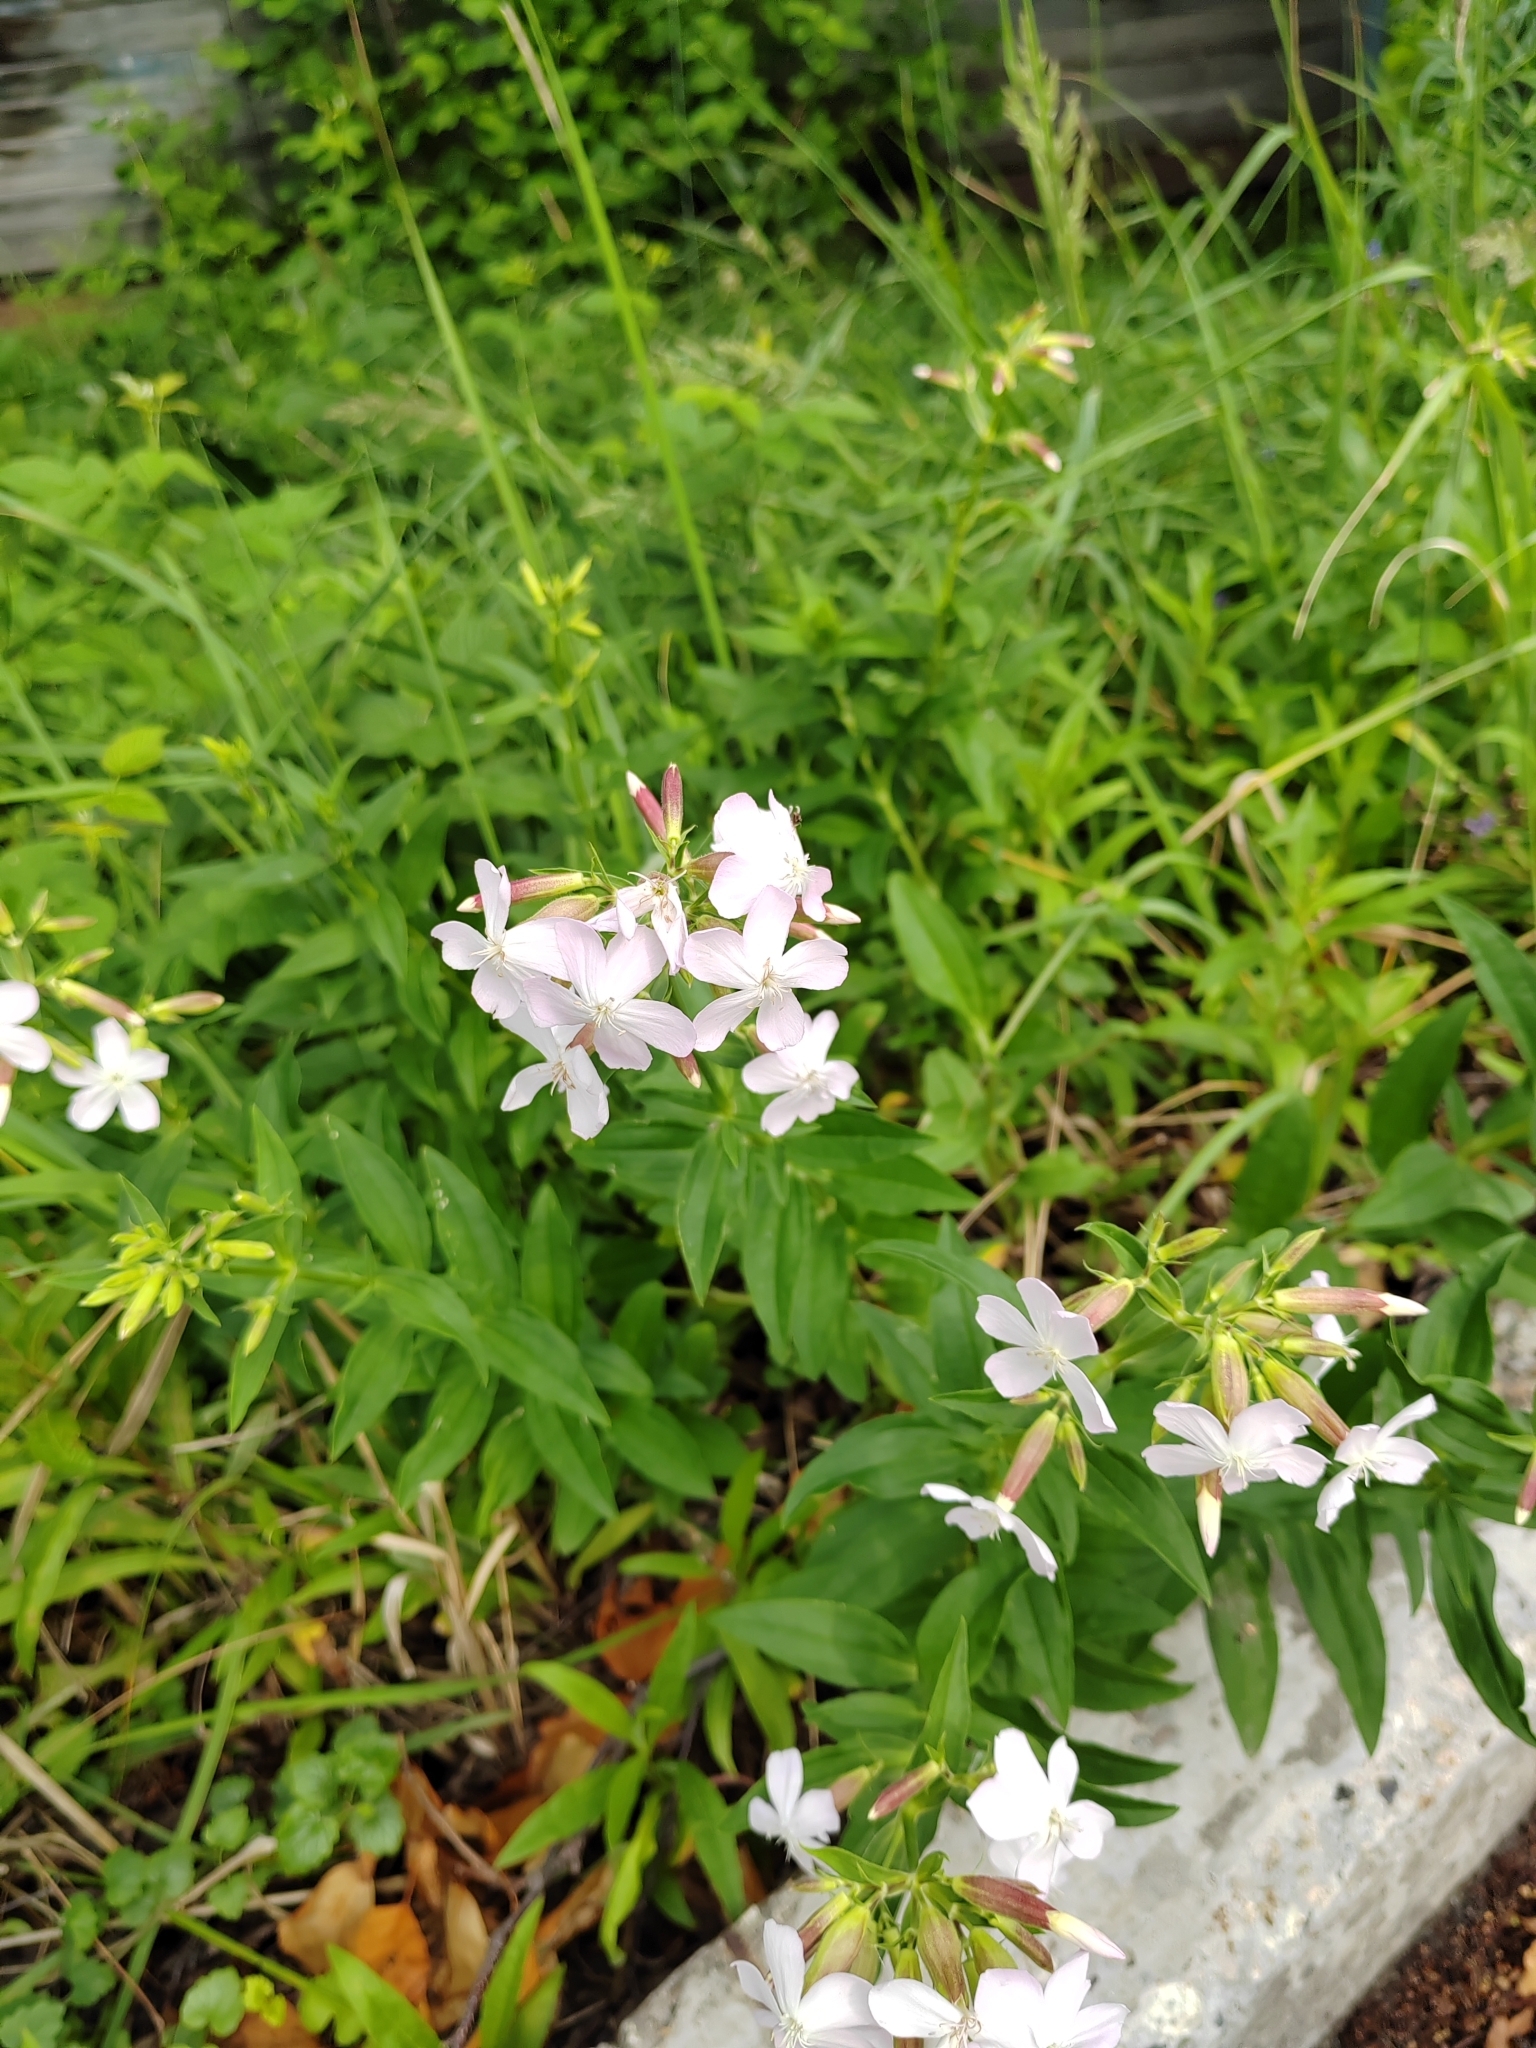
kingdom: Plantae
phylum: Tracheophyta
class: Magnoliopsida
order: Caryophyllales
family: Caryophyllaceae
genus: Saponaria
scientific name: Saponaria officinalis
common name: Soapwort
